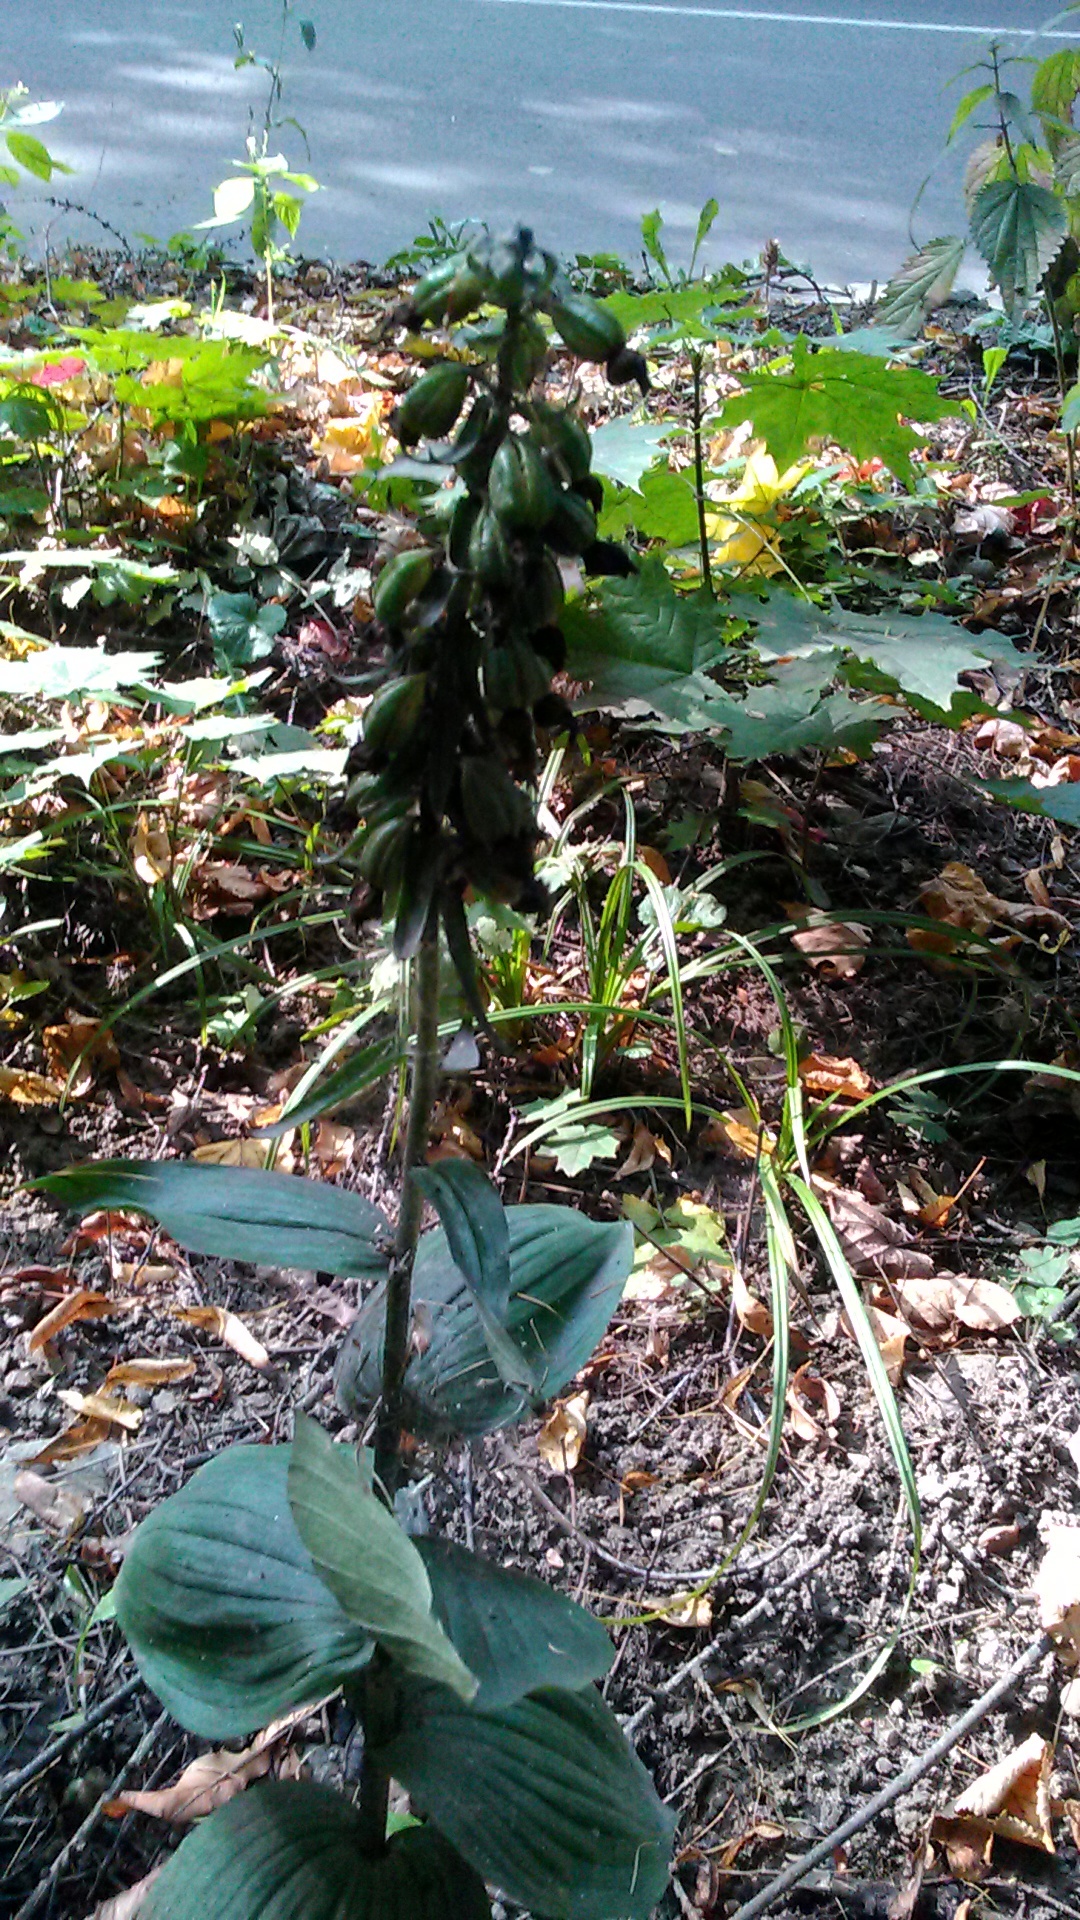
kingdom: Plantae
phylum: Tracheophyta
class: Liliopsida
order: Asparagales
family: Orchidaceae
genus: Epipactis
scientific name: Epipactis helleborine
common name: Broad-leaved helleborine
